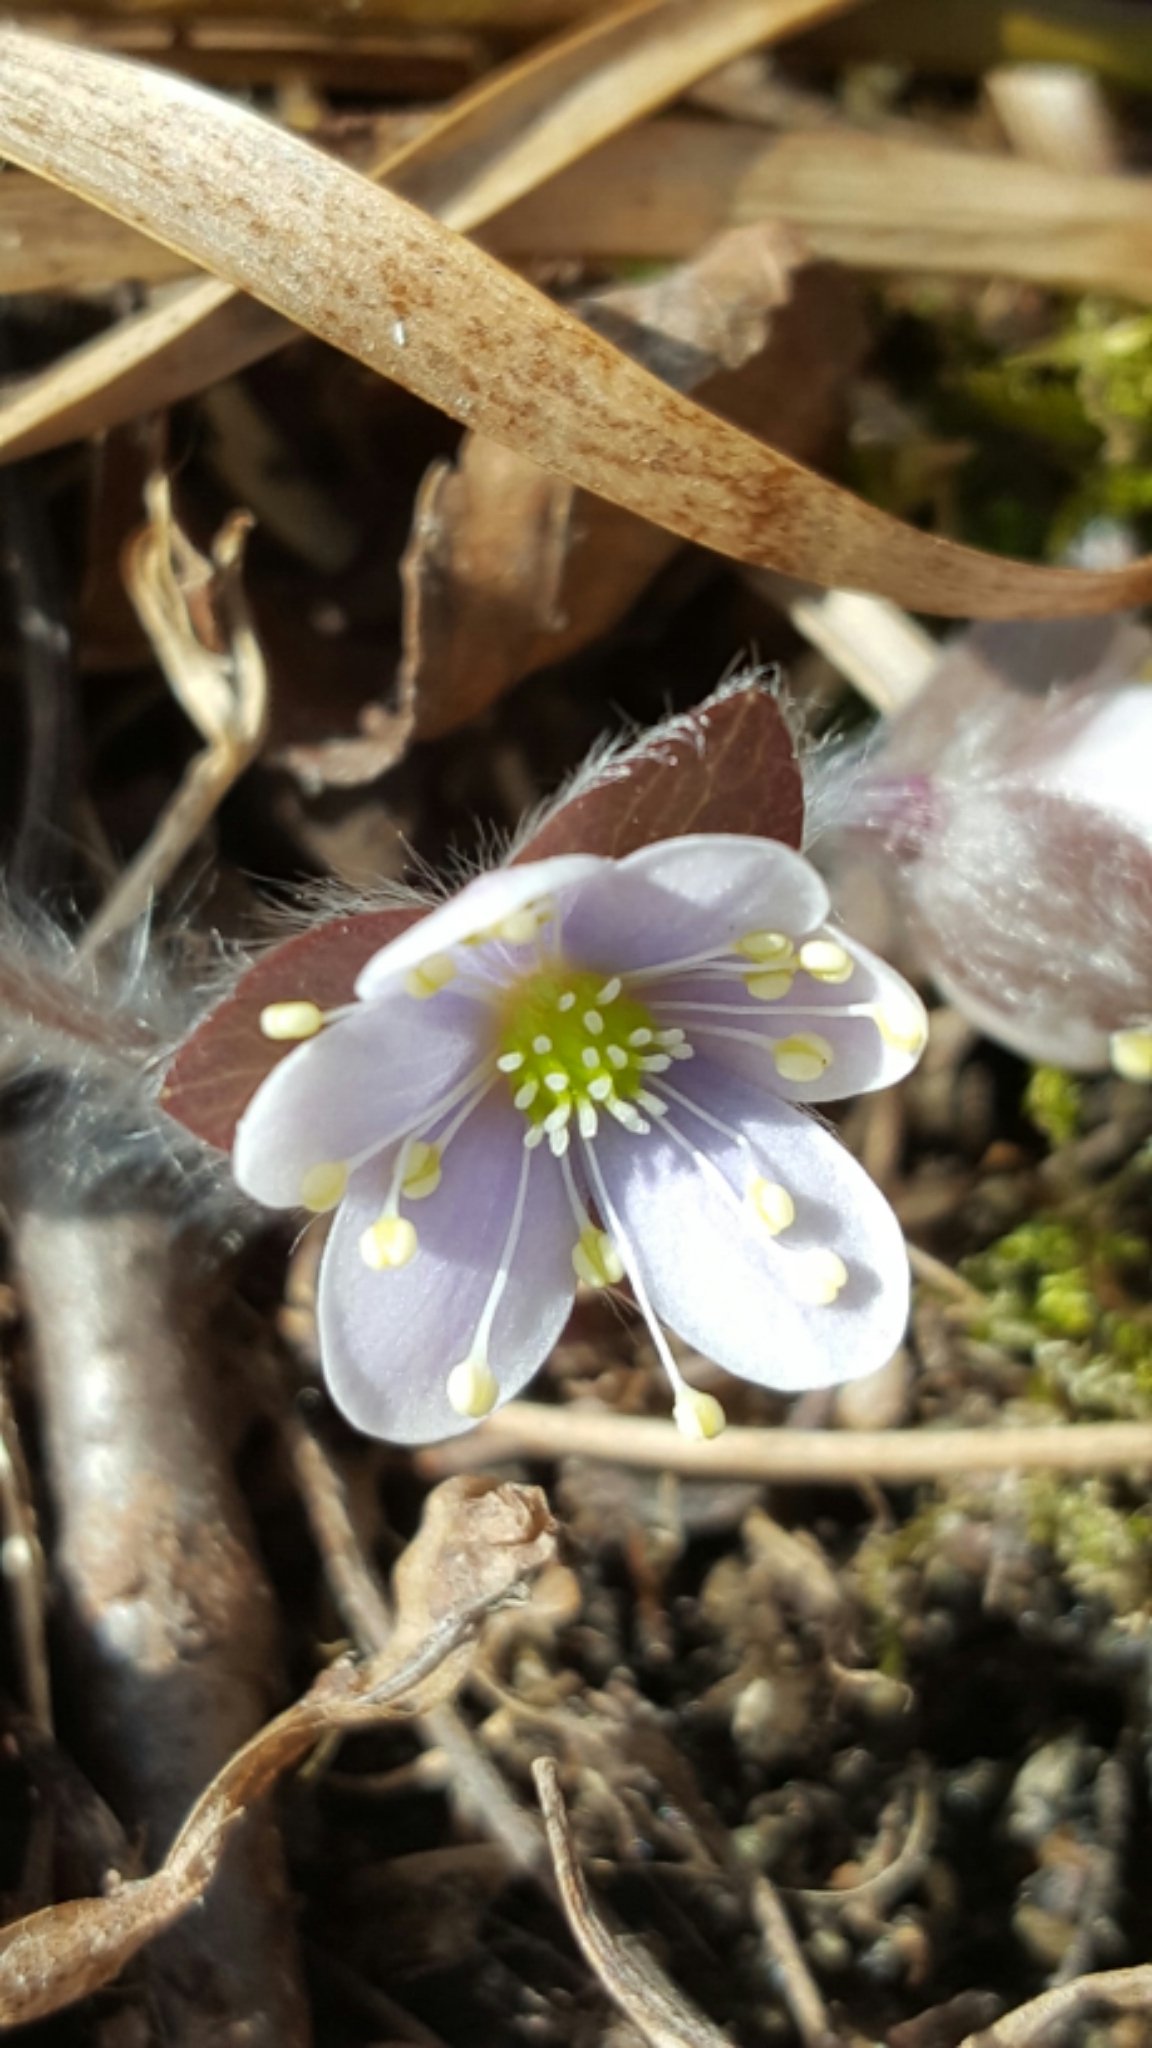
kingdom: Plantae
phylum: Tracheophyta
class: Magnoliopsida
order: Ranunculales
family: Ranunculaceae
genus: Hepatica
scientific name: Hepatica americana
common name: American hepatica
